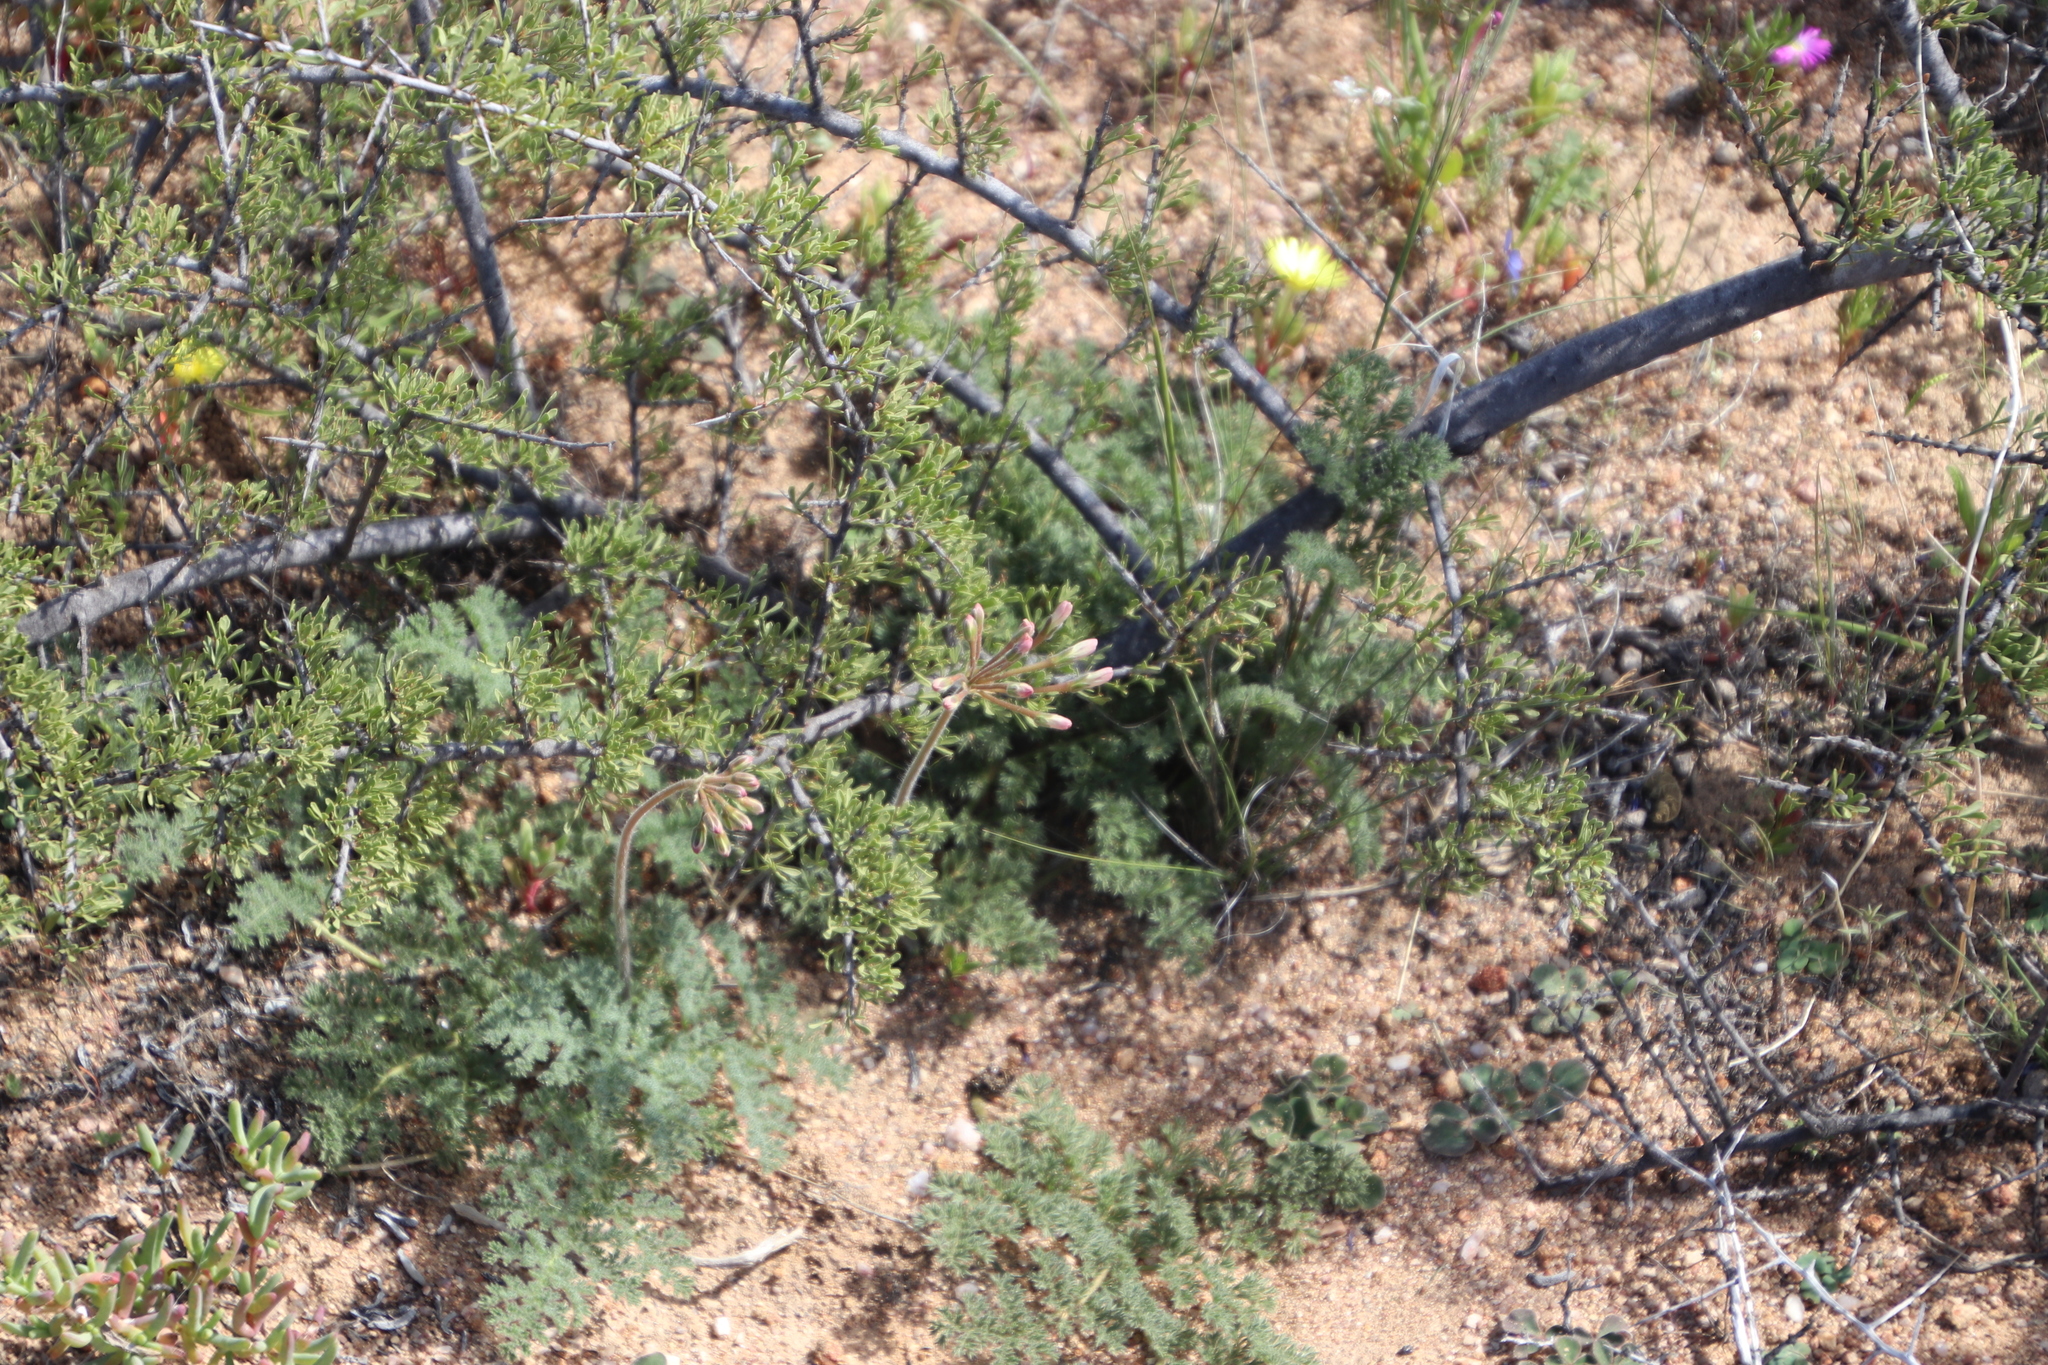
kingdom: Plantae
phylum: Tracheophyta
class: Magnoliopsida
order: Geraniales
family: Geraniaceae
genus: Pelargonium
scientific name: Pelargonium triste
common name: Night-scent pelargonium
